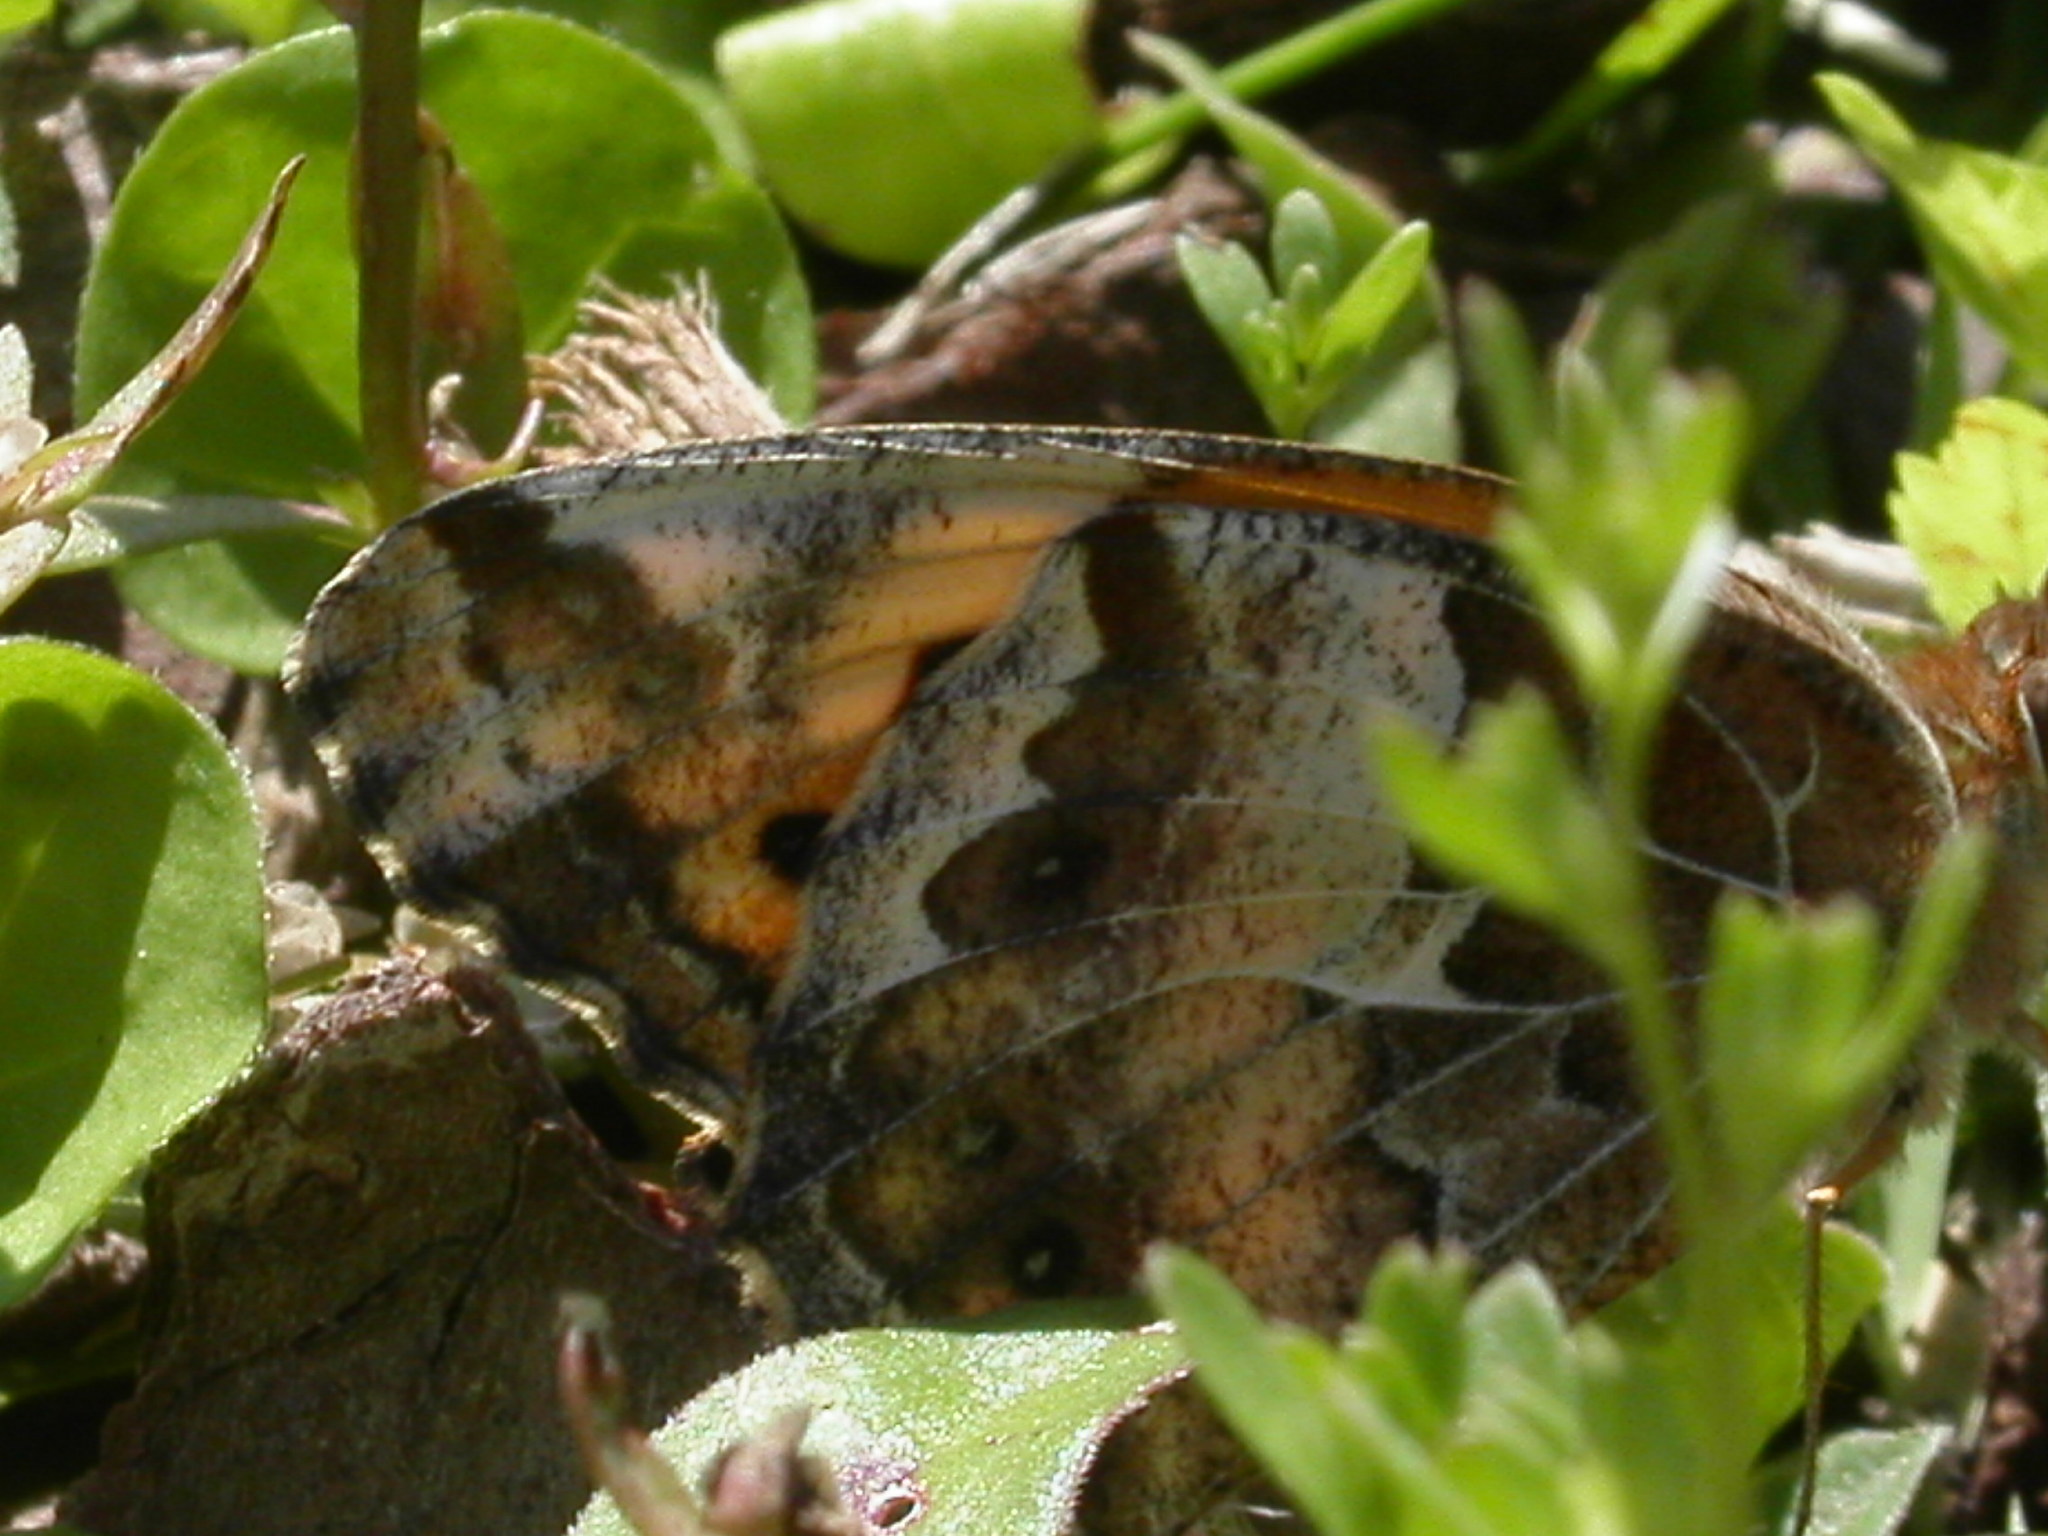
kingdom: Animalia
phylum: Arthropoda
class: Insecta
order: Lepidoptera
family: Nymphalidae
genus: Euptoieta
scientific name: Euptoieta claudia
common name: Variegated fritillary
